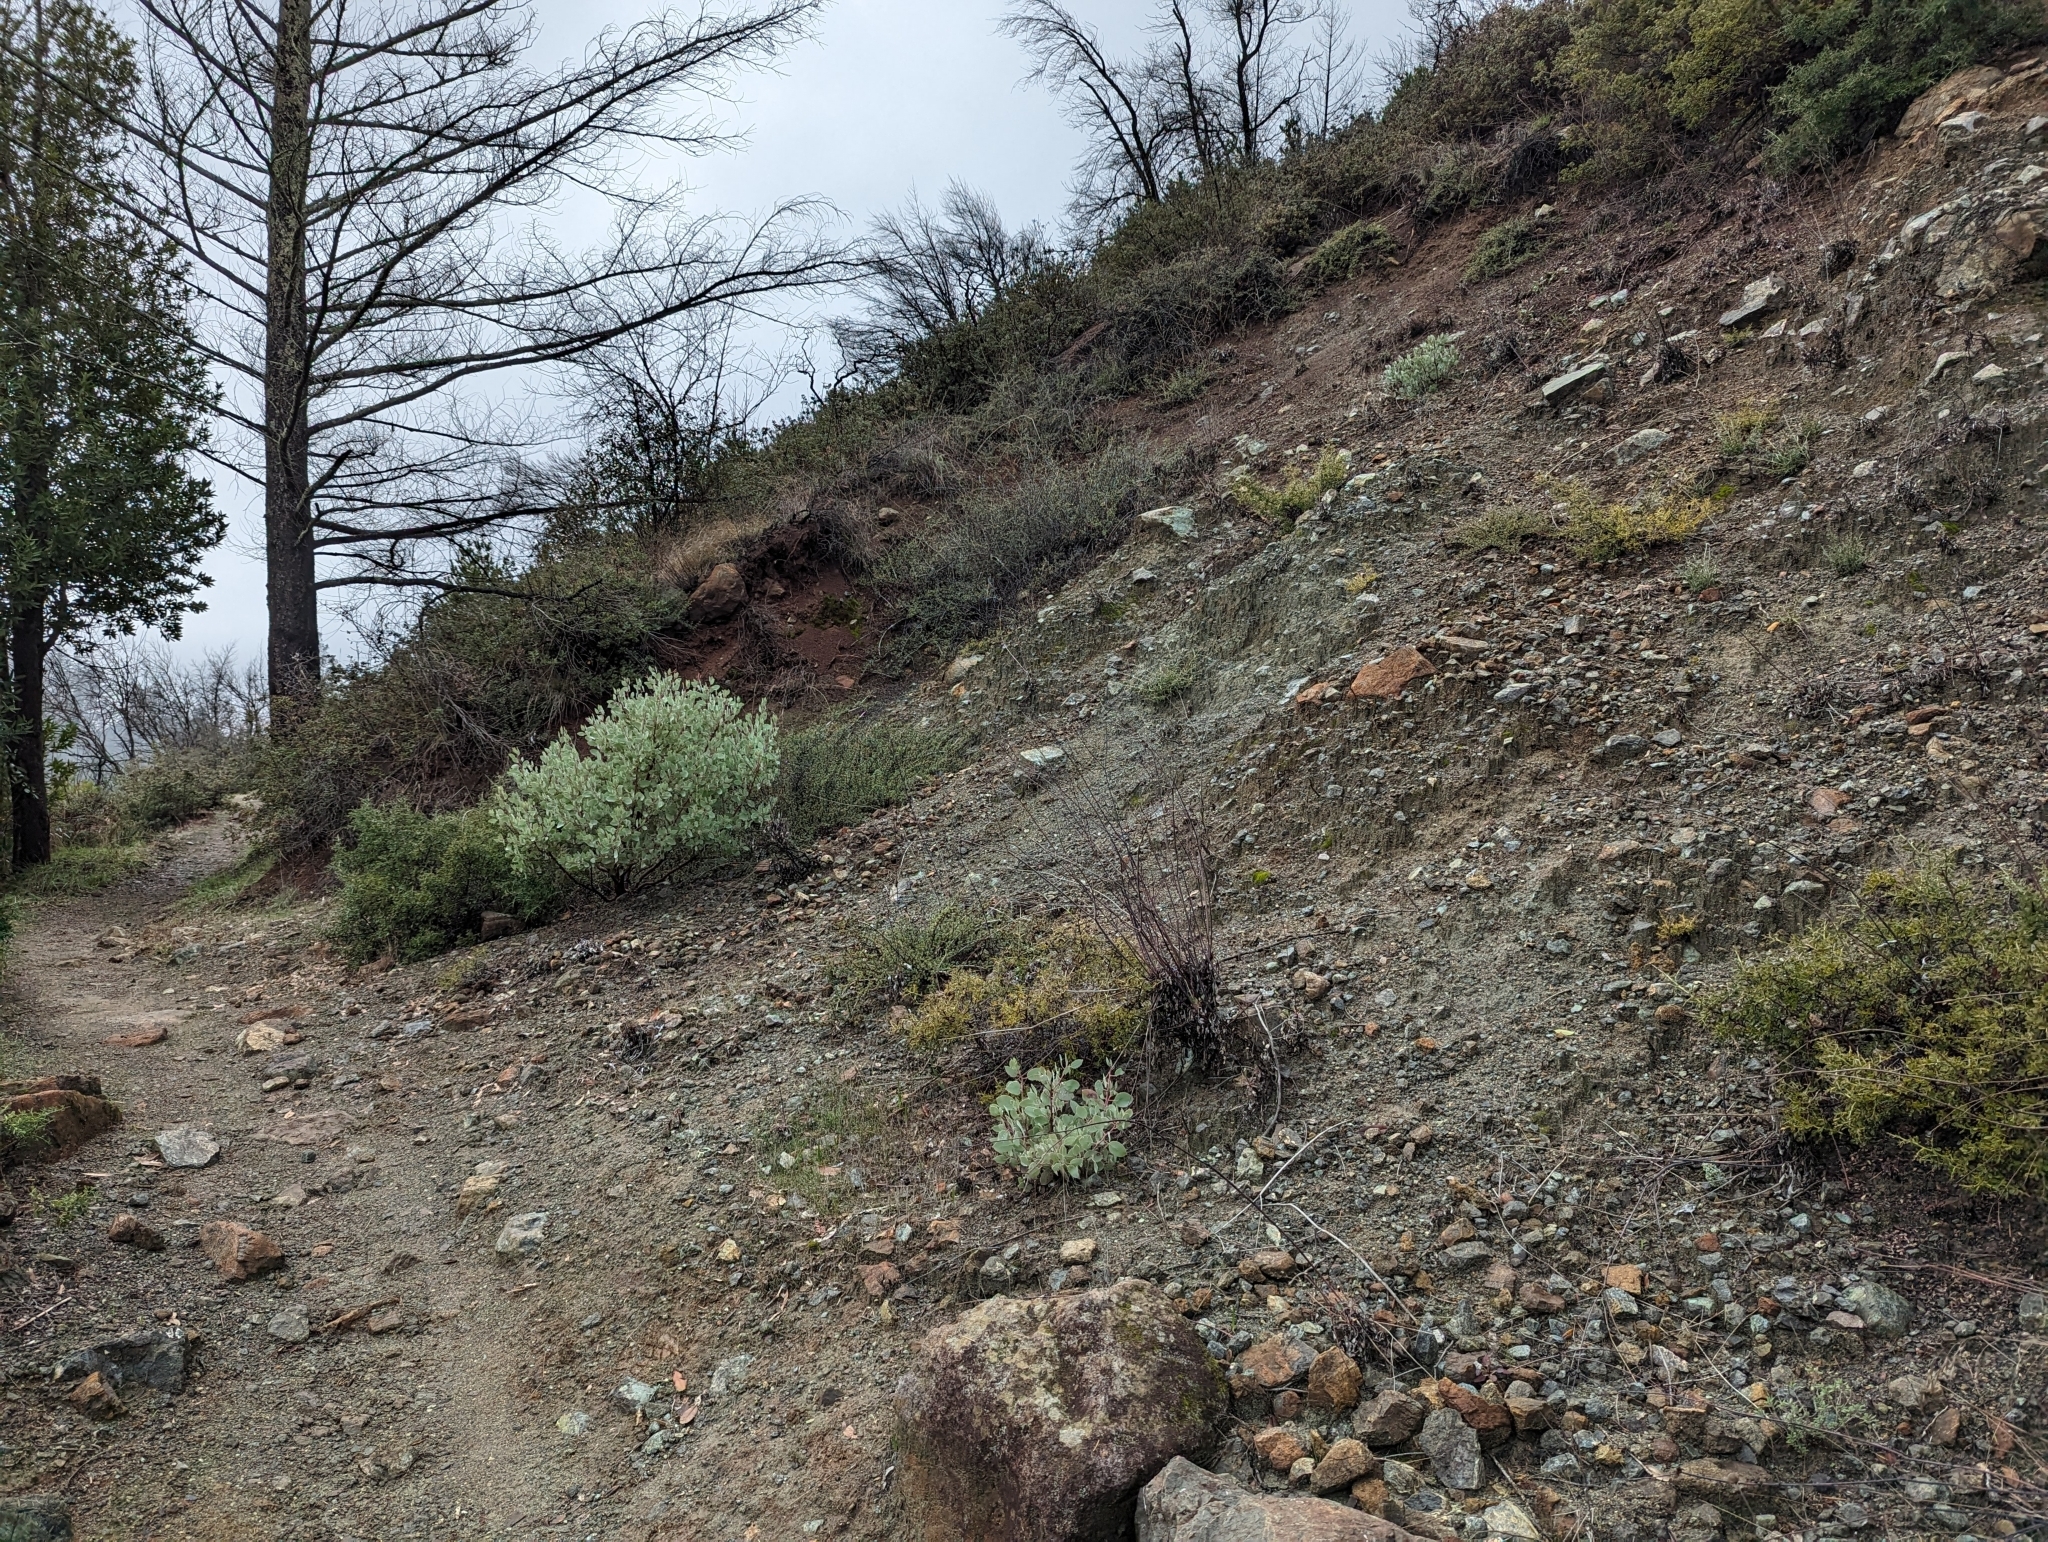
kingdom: Plantae
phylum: Tracheophyta
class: Magnoliopsida
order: Ericales
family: Ericaceae
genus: Arctostaphylos
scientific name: Arctostaphylos viscida
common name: White-leaf manzanita
